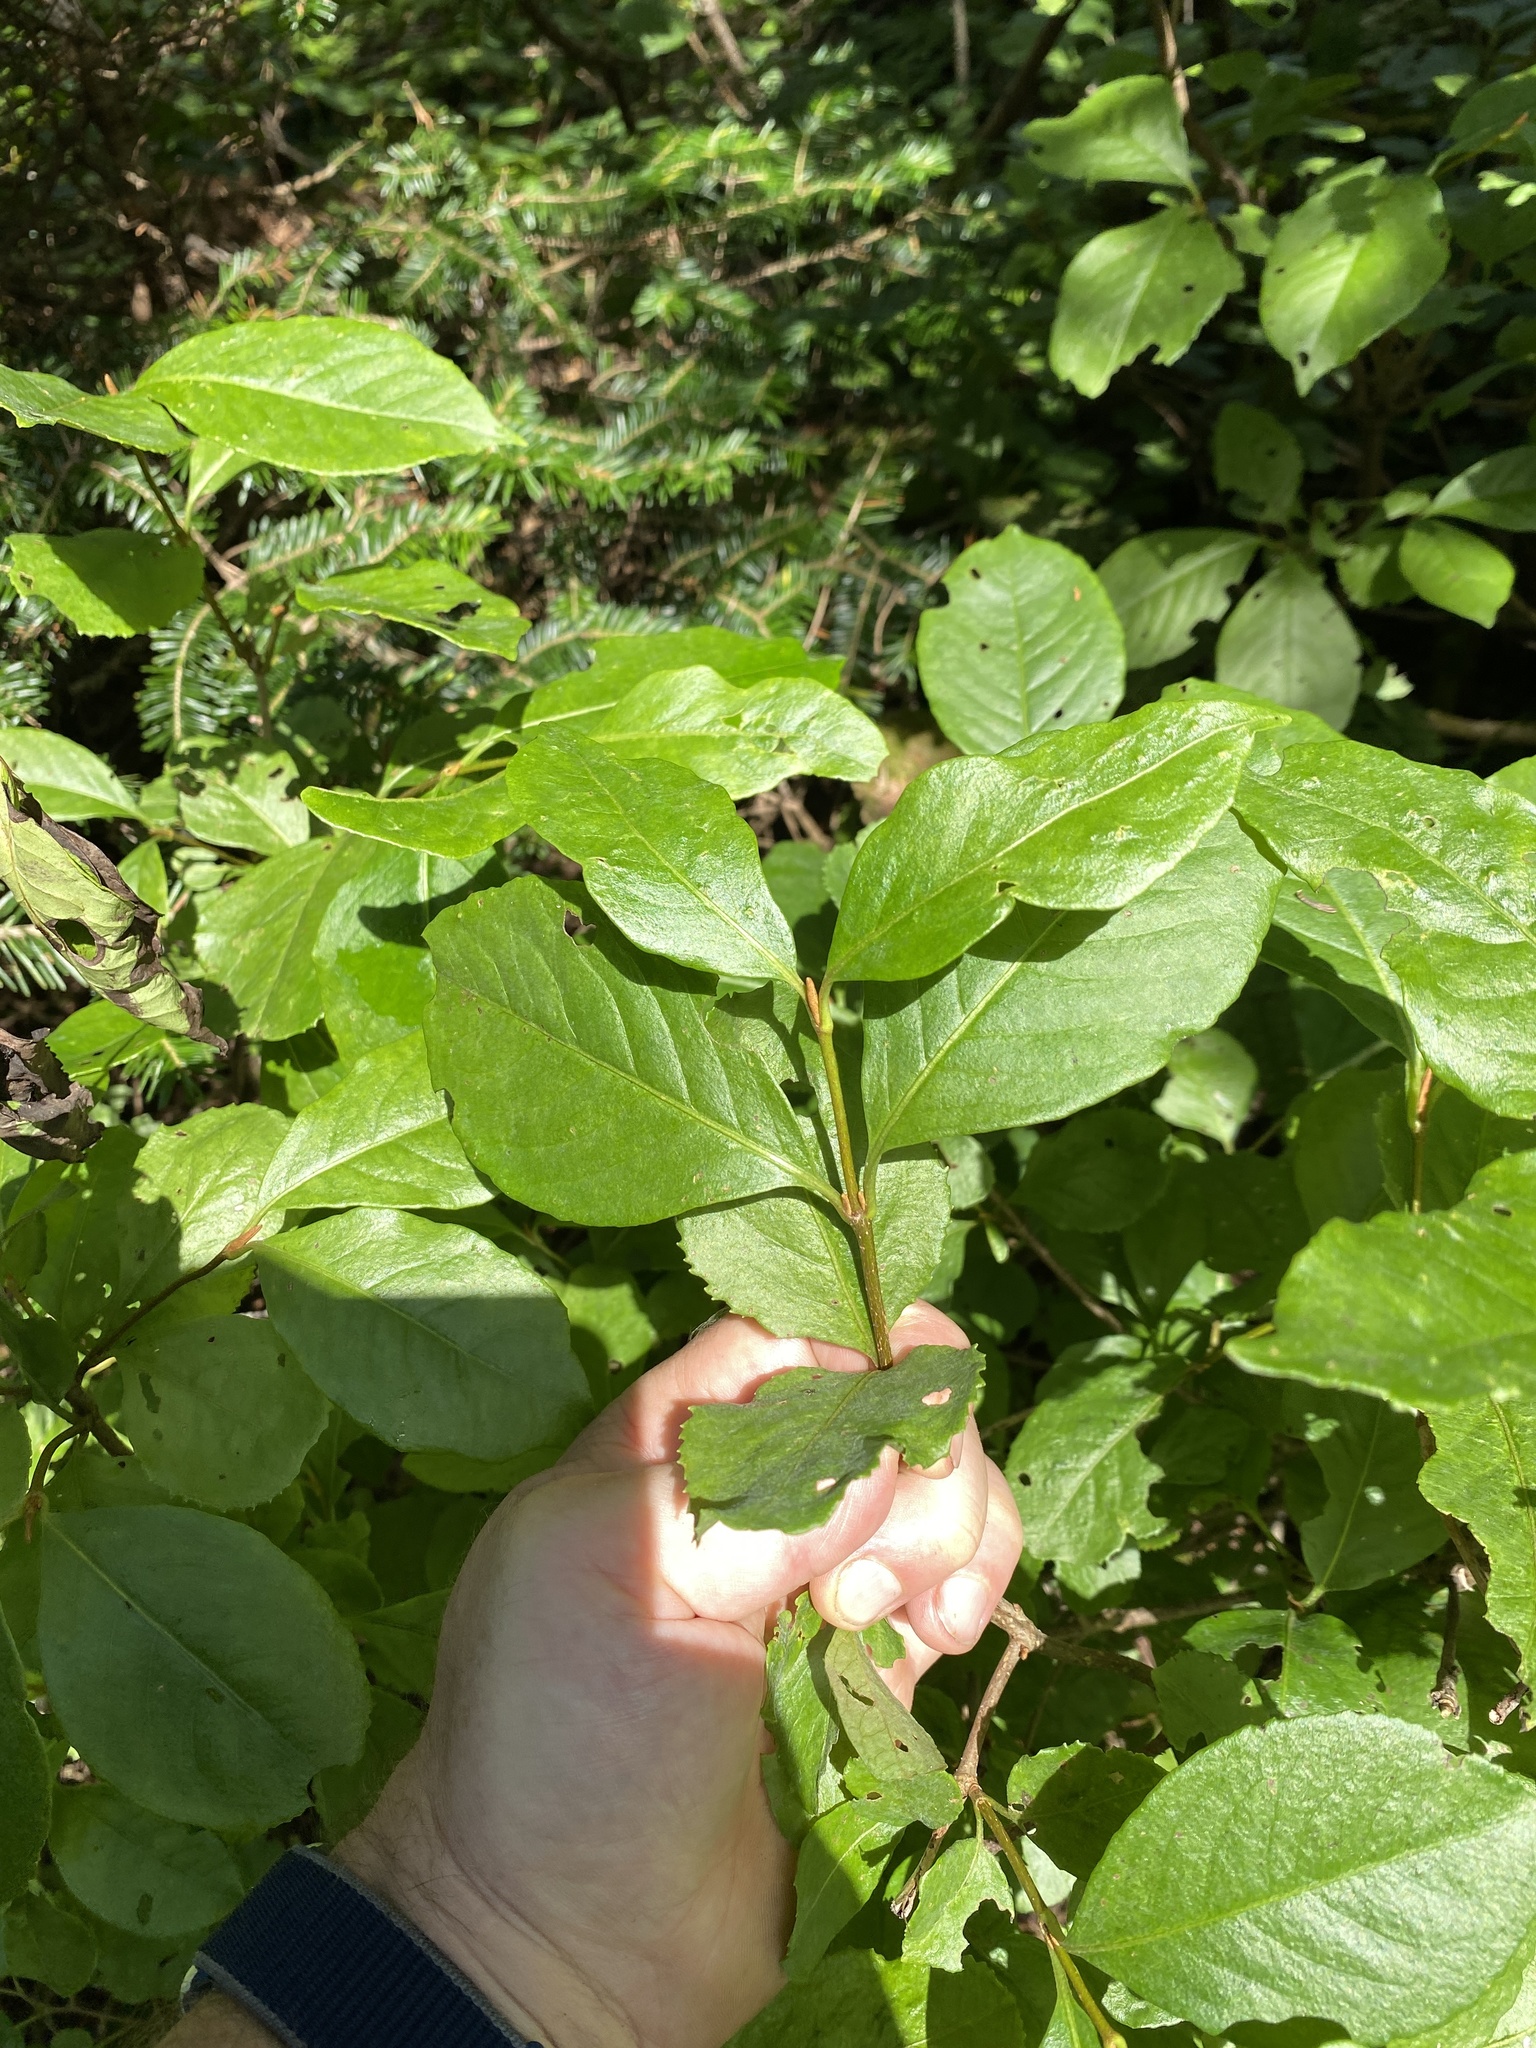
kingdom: Plantae
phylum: Tracheophyta
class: Magnoliopsida
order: Dipsacales
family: Viburnaceae
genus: Viburnum
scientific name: Viburnum cassinoides
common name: Swamp haw
